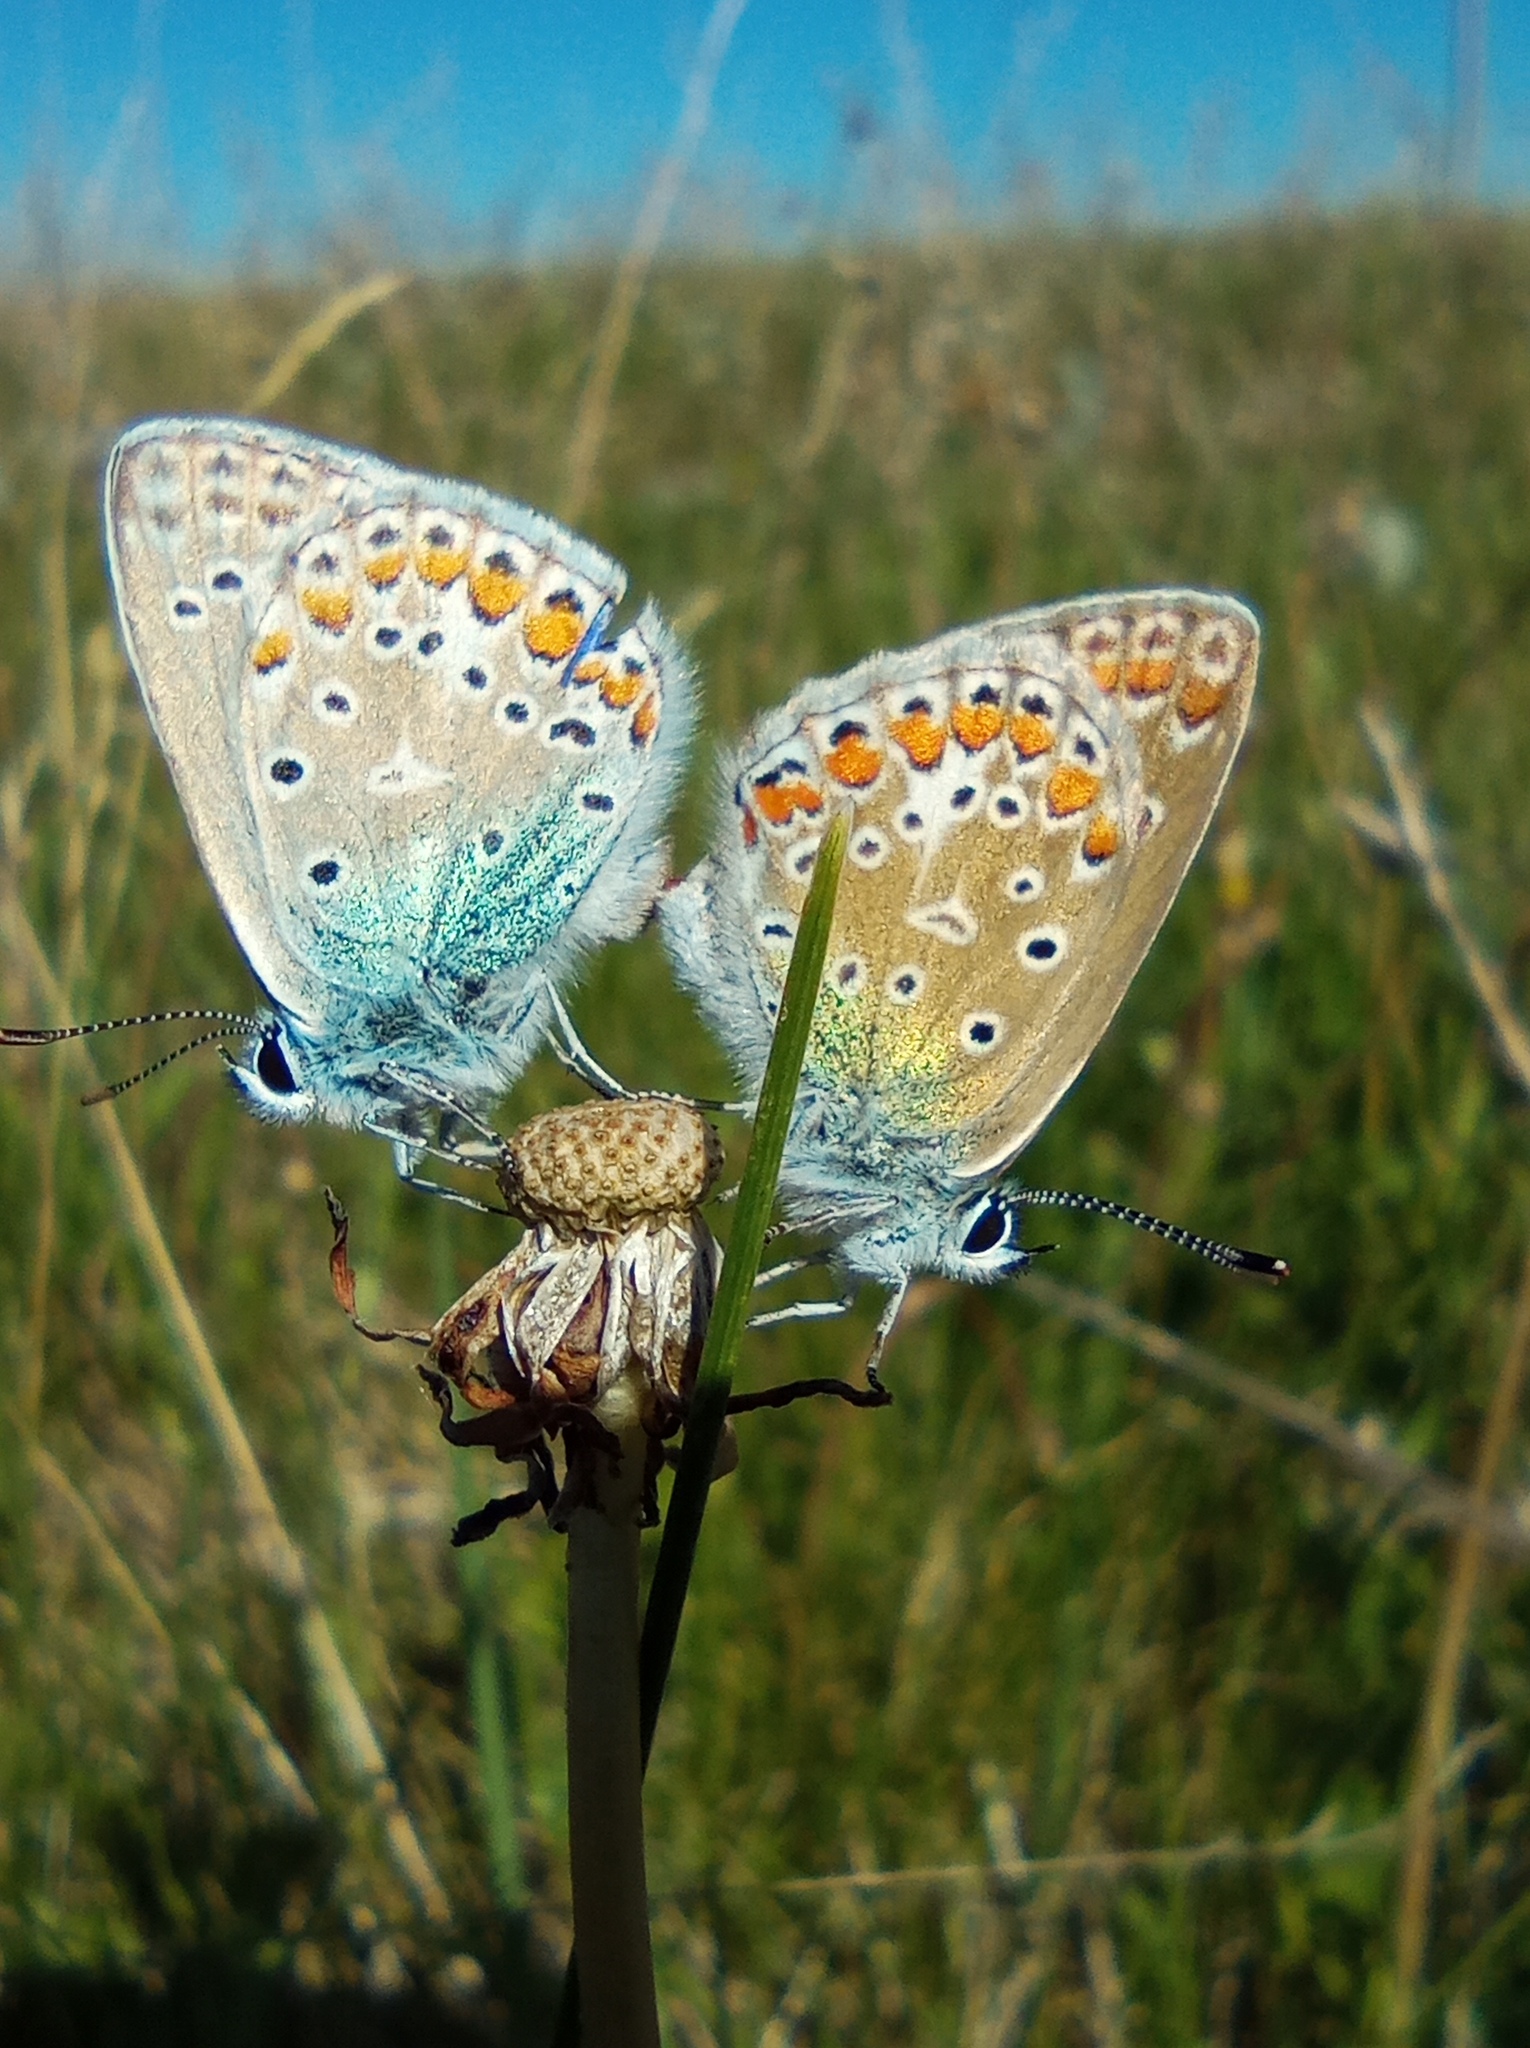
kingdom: Animalia
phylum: Arthropoda
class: Insecta
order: Lepidoptera
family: Lycaenidae
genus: Polyommatus
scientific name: Polyommatus icarus
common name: Common blue
